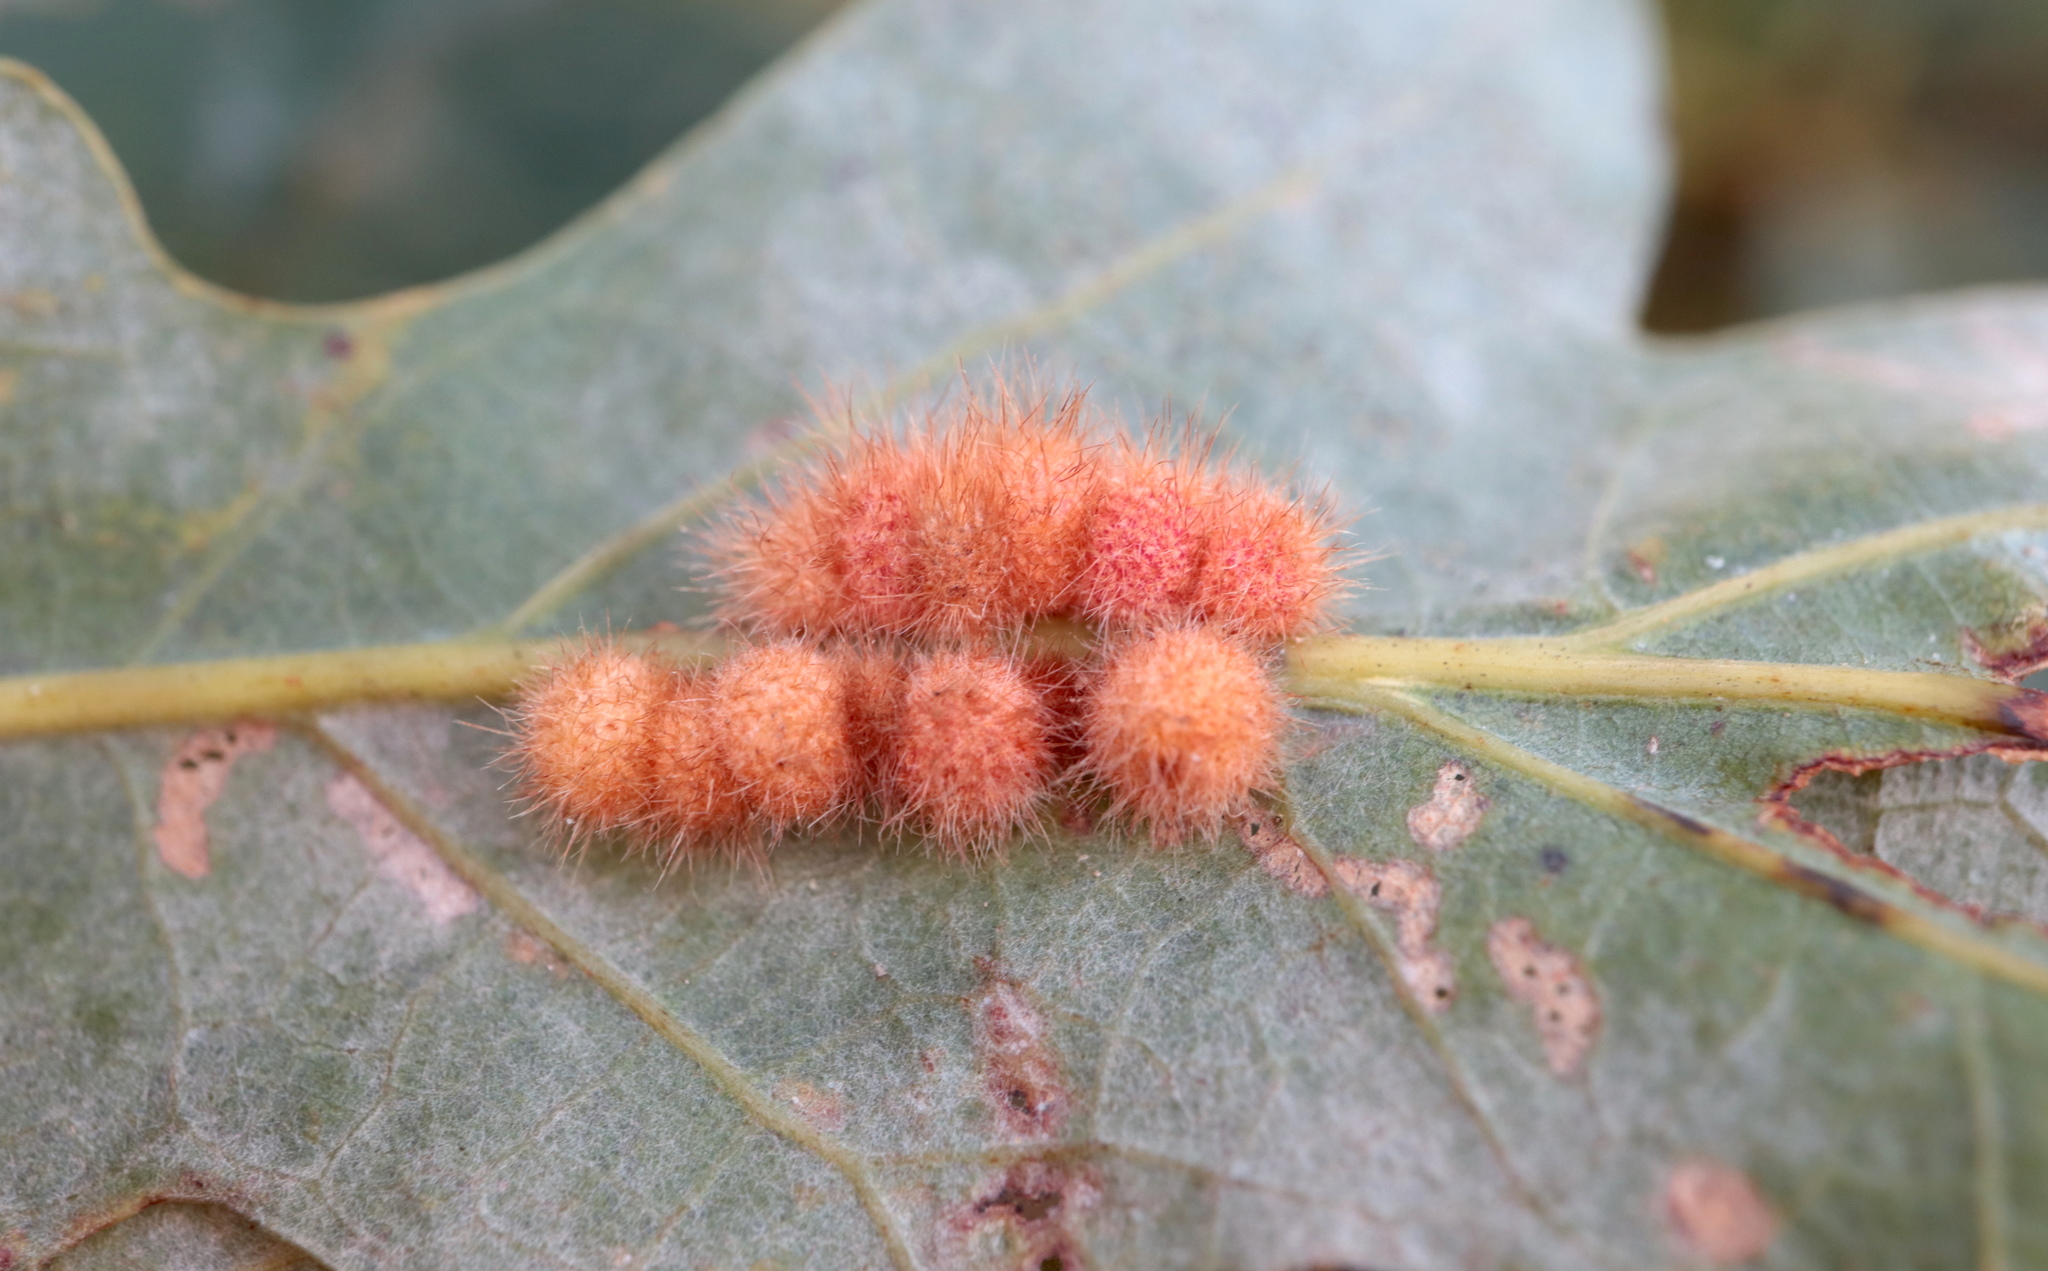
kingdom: Animalia
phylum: Arthropoda
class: Insecta
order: Hymenoptera
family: Cynipidae
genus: Andricus
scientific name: Andricus
